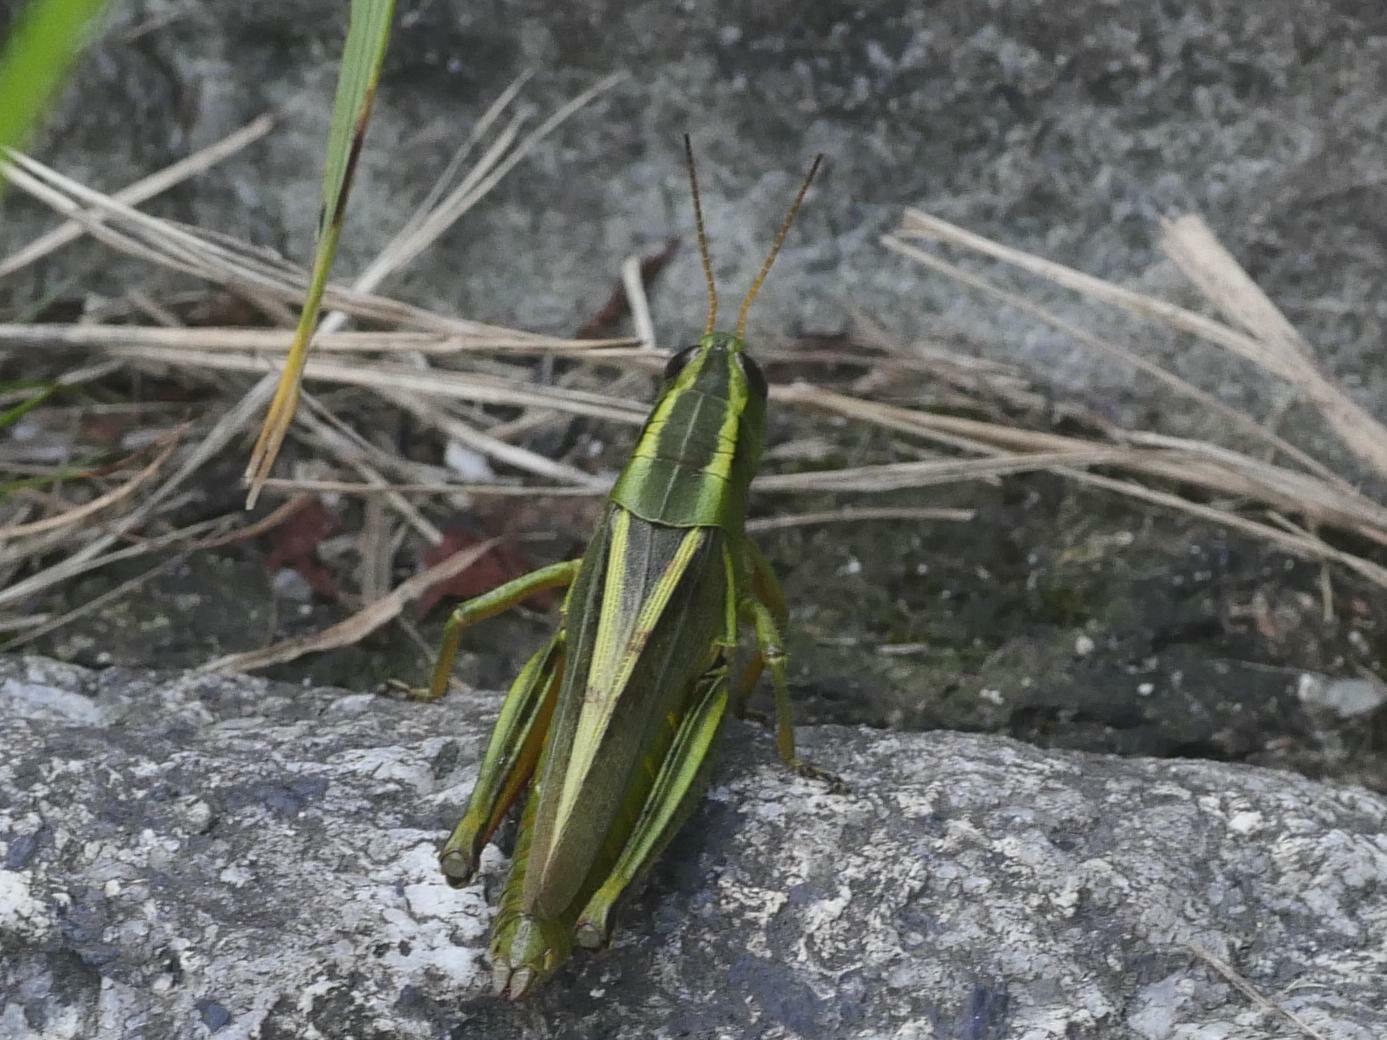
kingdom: Animalia
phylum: Arthropoda
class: Insecta
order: Orthoptera
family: Acrididae
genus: Melanoplus
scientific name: Melanoplus bivittatus
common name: Two-striped grasshopper
